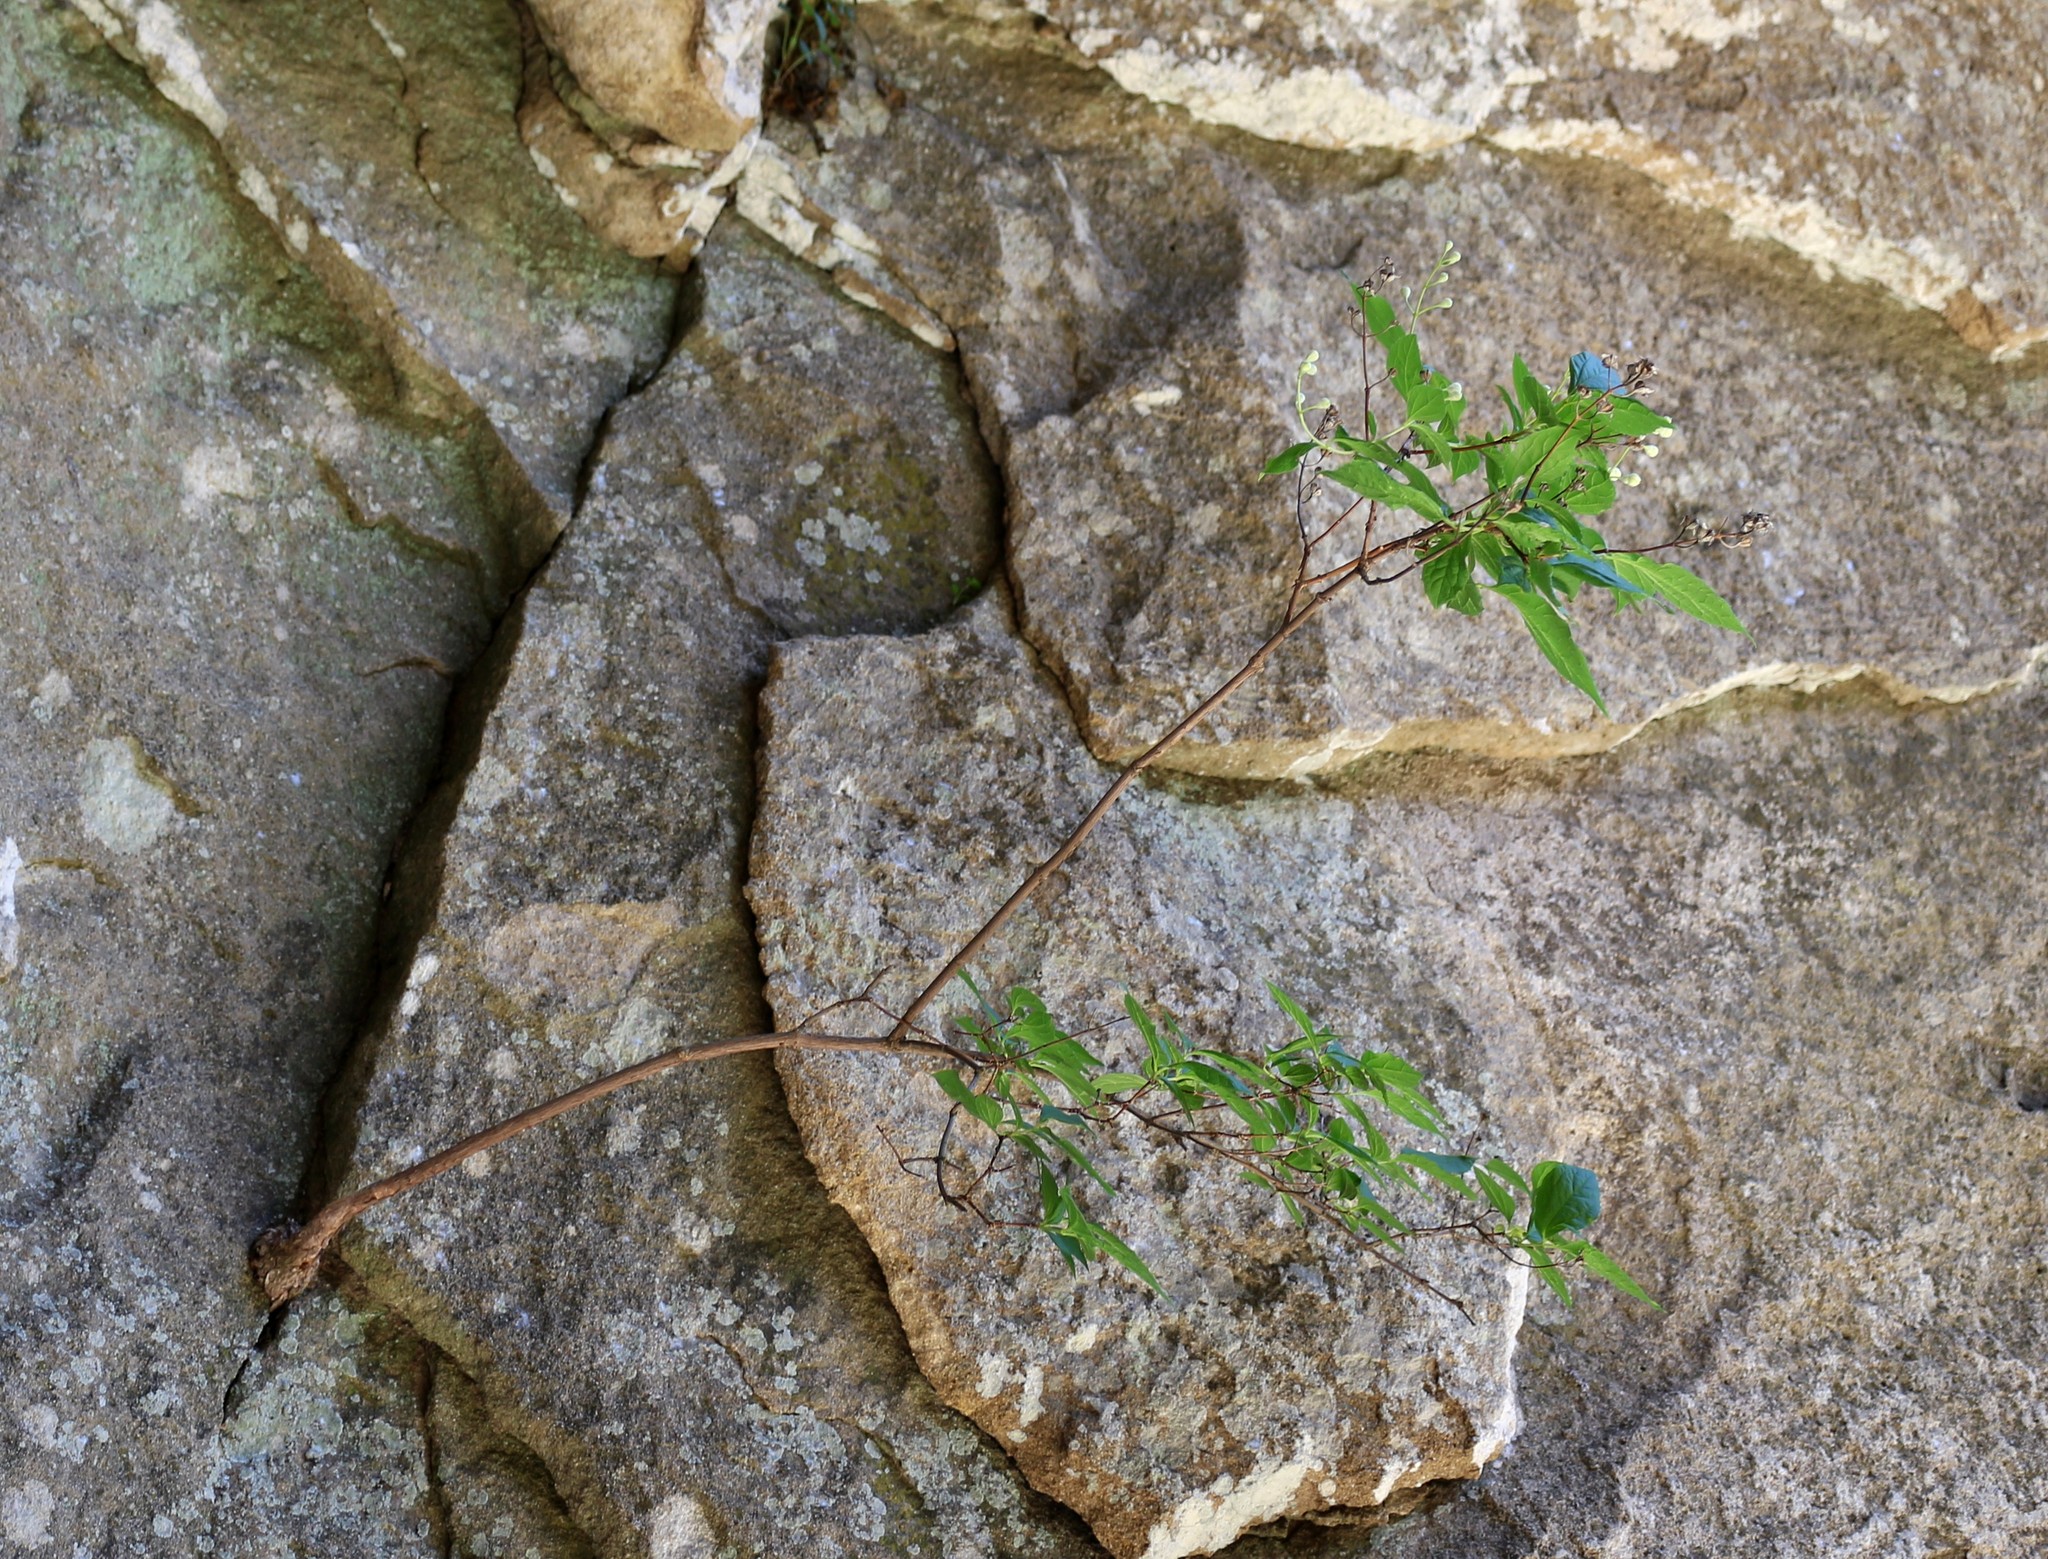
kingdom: Plantae
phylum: Tracheophyta
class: Magnoliopsida
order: Ericales
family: Ericaceae
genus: Vaccinium
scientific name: Vaccinium arctostaphylos
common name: Caucasian whortleberry
